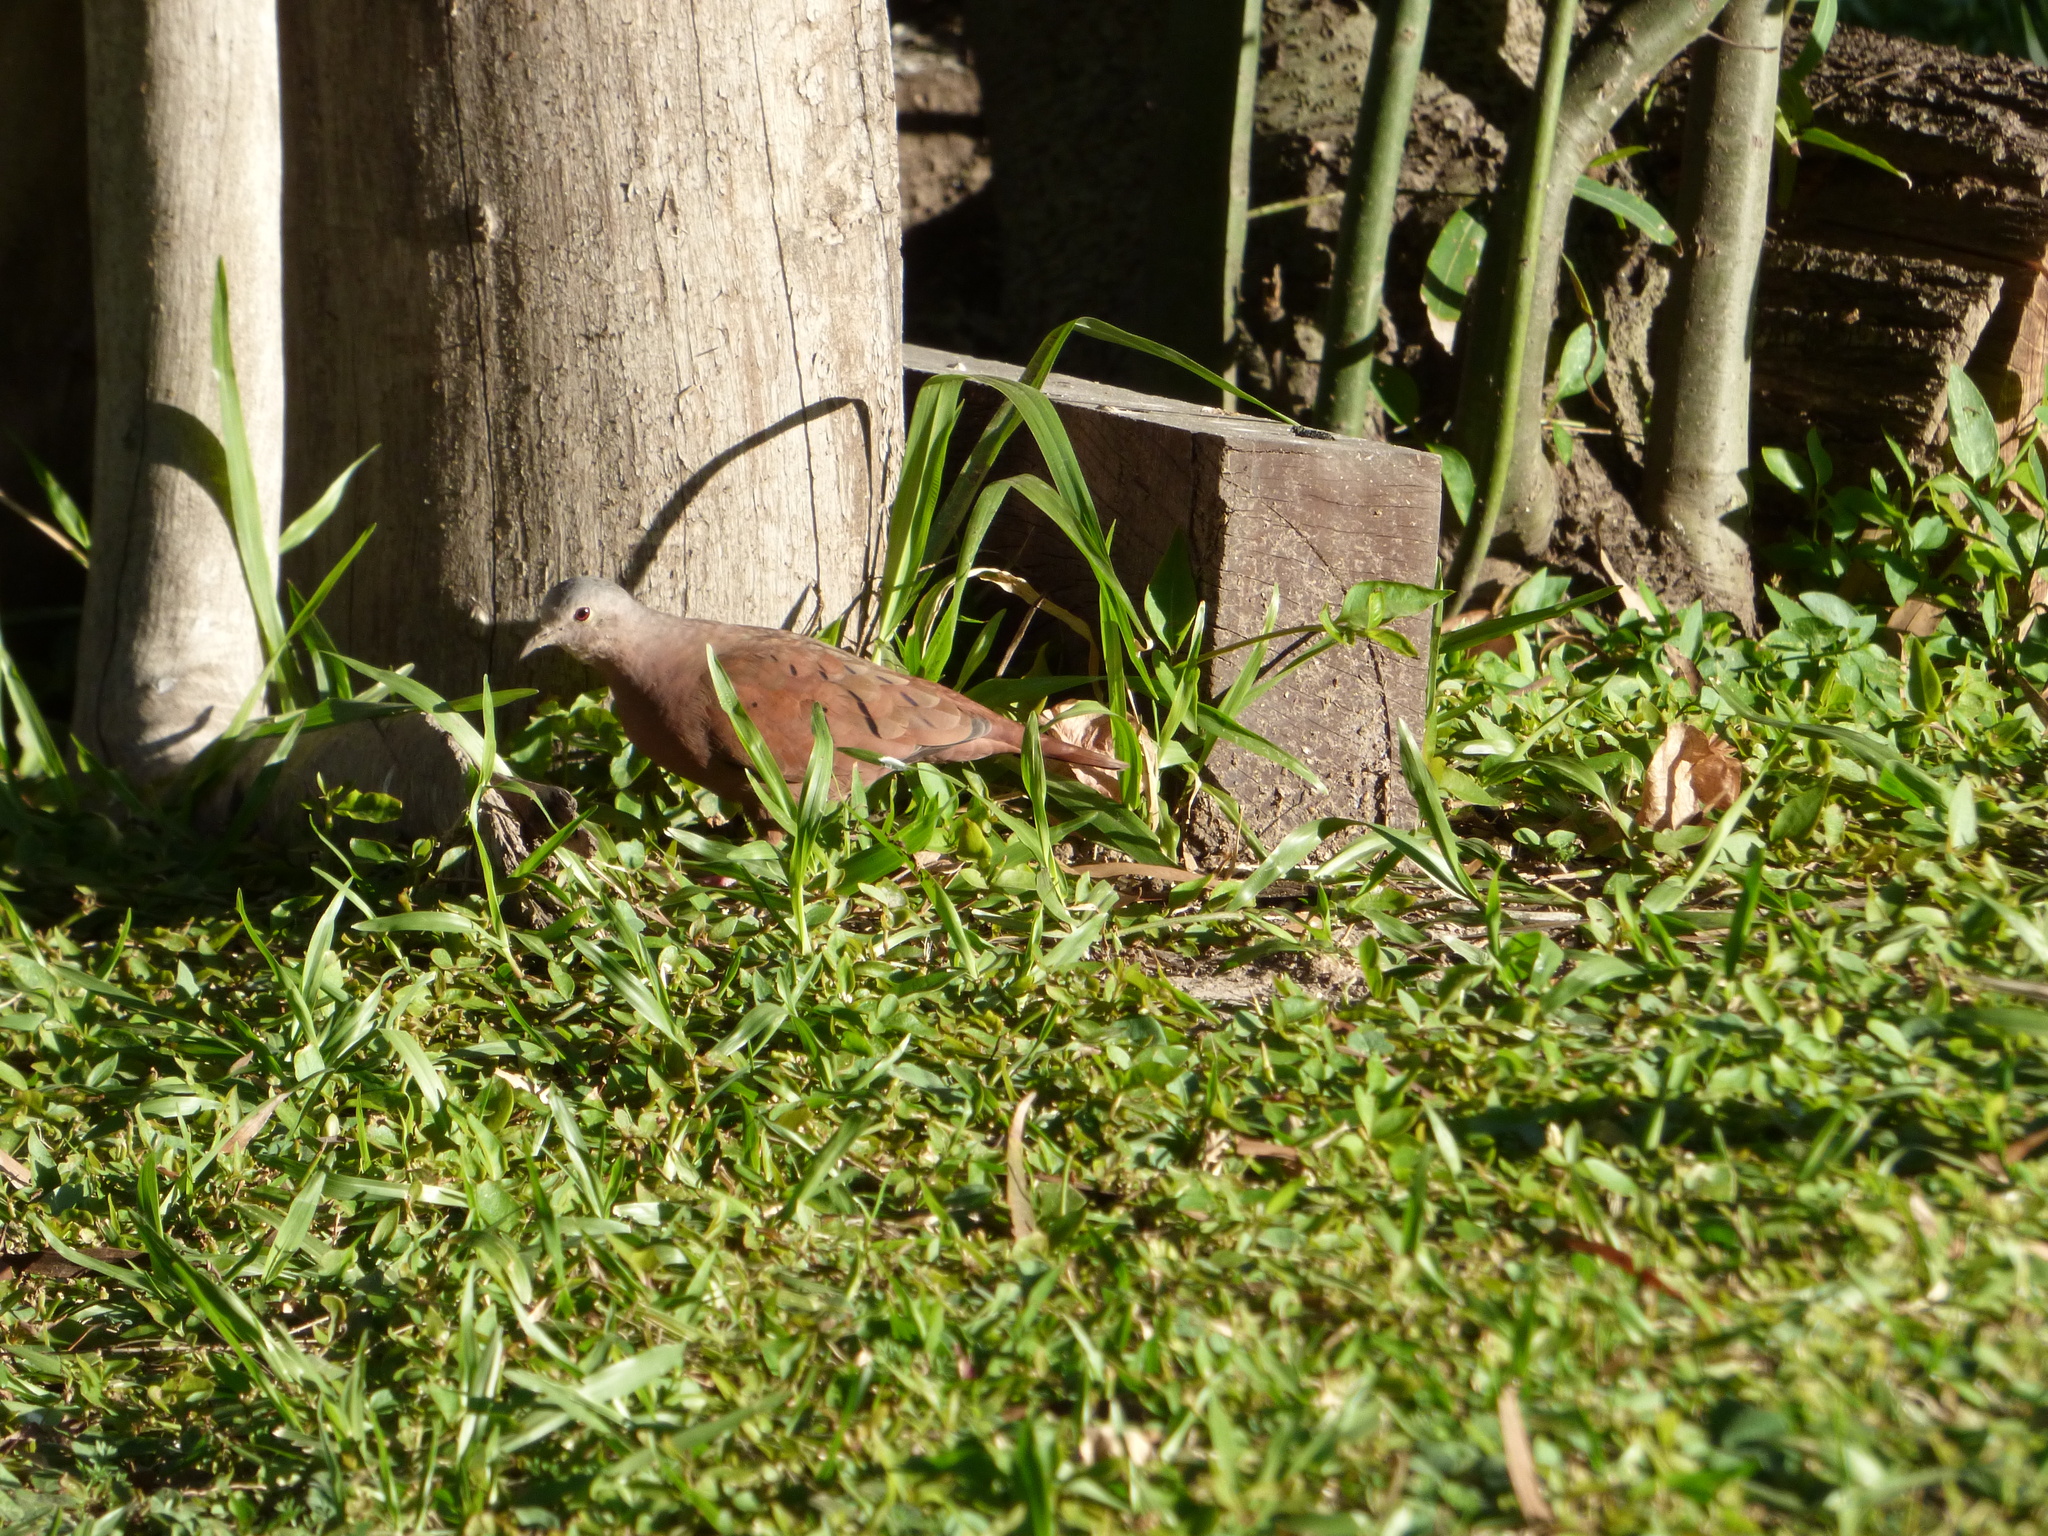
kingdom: Animalia
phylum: Chordata
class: Aves
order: Columbiformes
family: Columbidae
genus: Columbina
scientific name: Columbina talpacoti
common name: Ruddy ground dove
